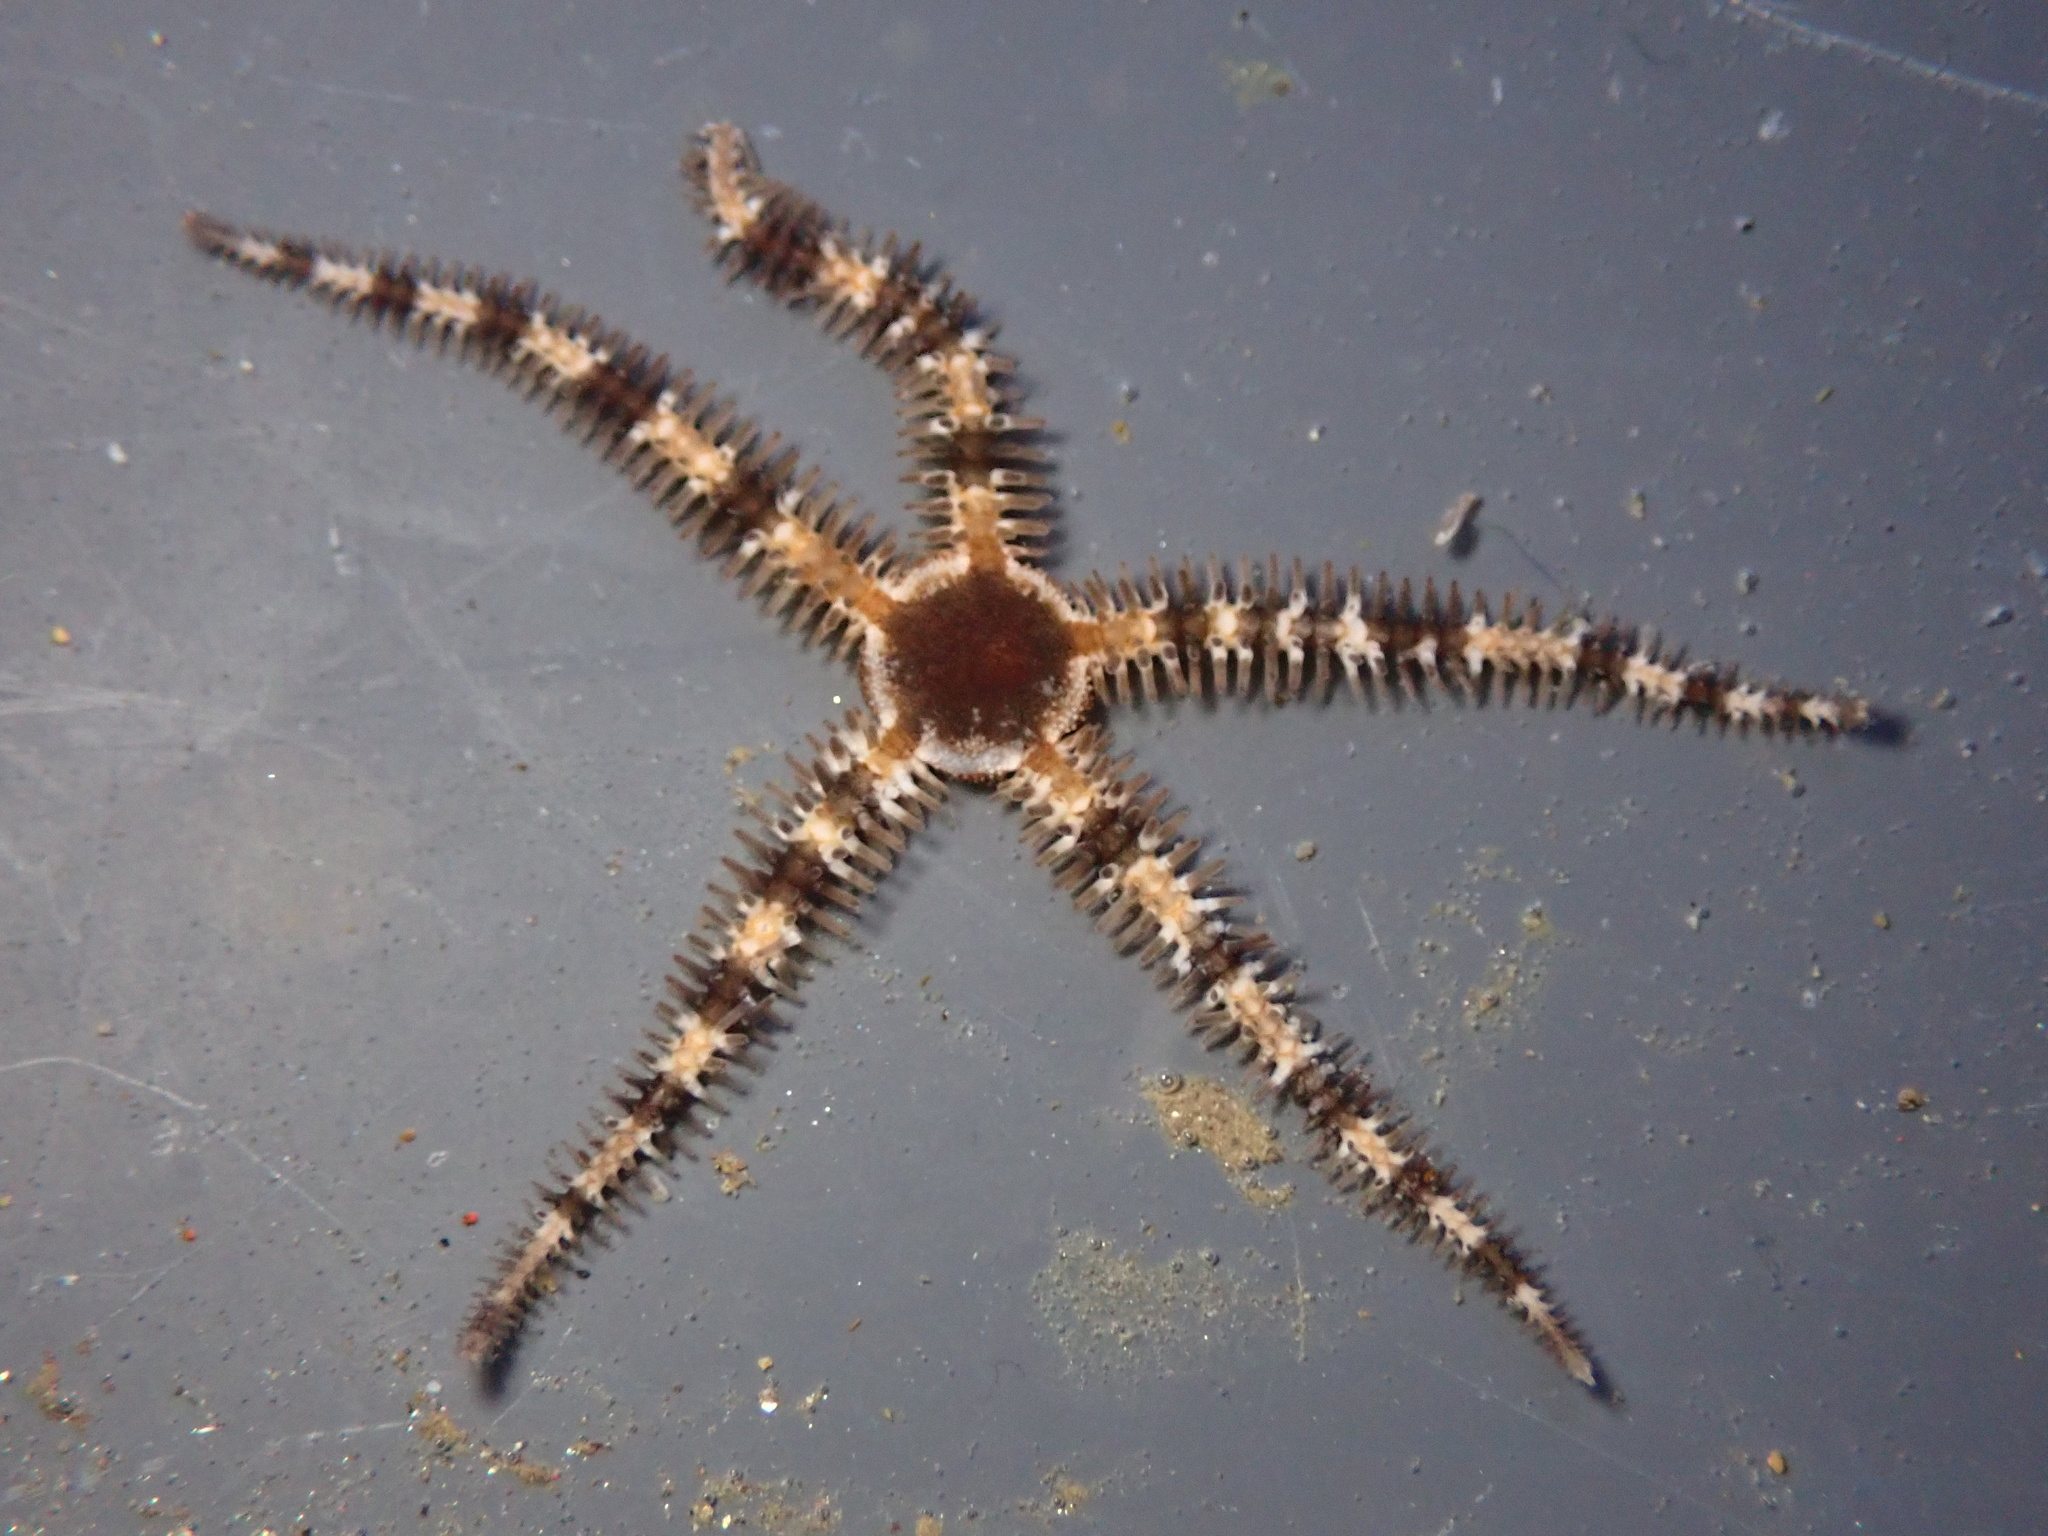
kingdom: Animalia
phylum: Echinodermata
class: Ophiuroidea
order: Ophiacanthida
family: Ophiopteridae
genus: Ophiopteris
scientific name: Ophiopteris papillosa
